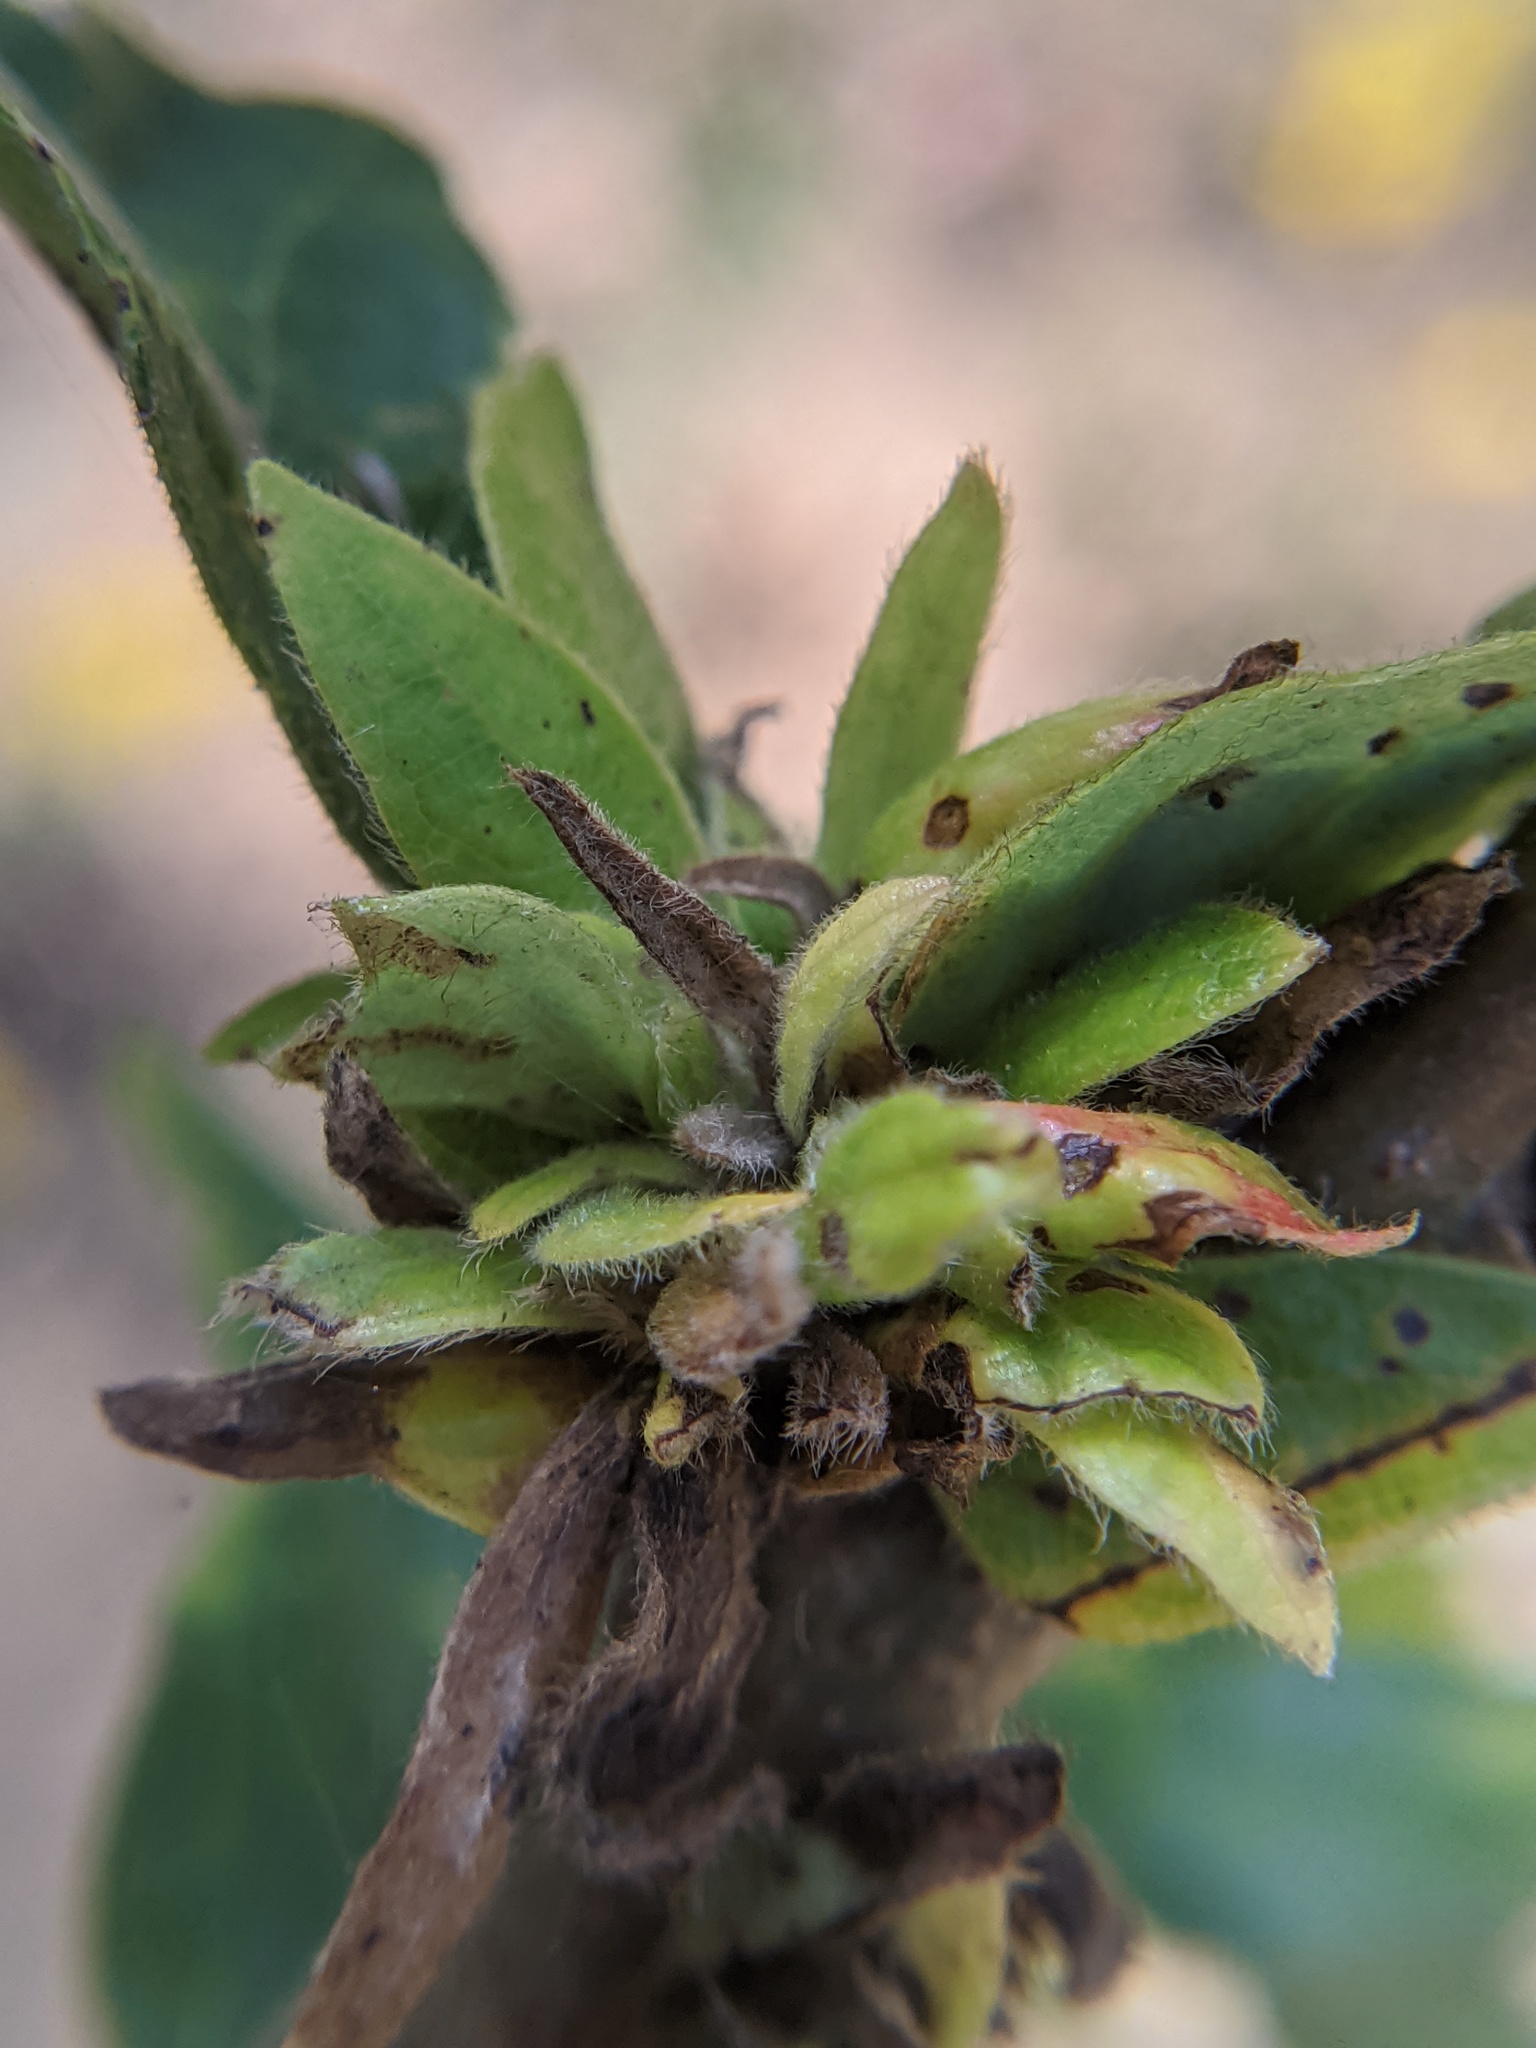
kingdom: Animalia
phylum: Arthropoda
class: Insecta
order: Hymenoptera
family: Cynipidae
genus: Andricus
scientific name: Andricus
